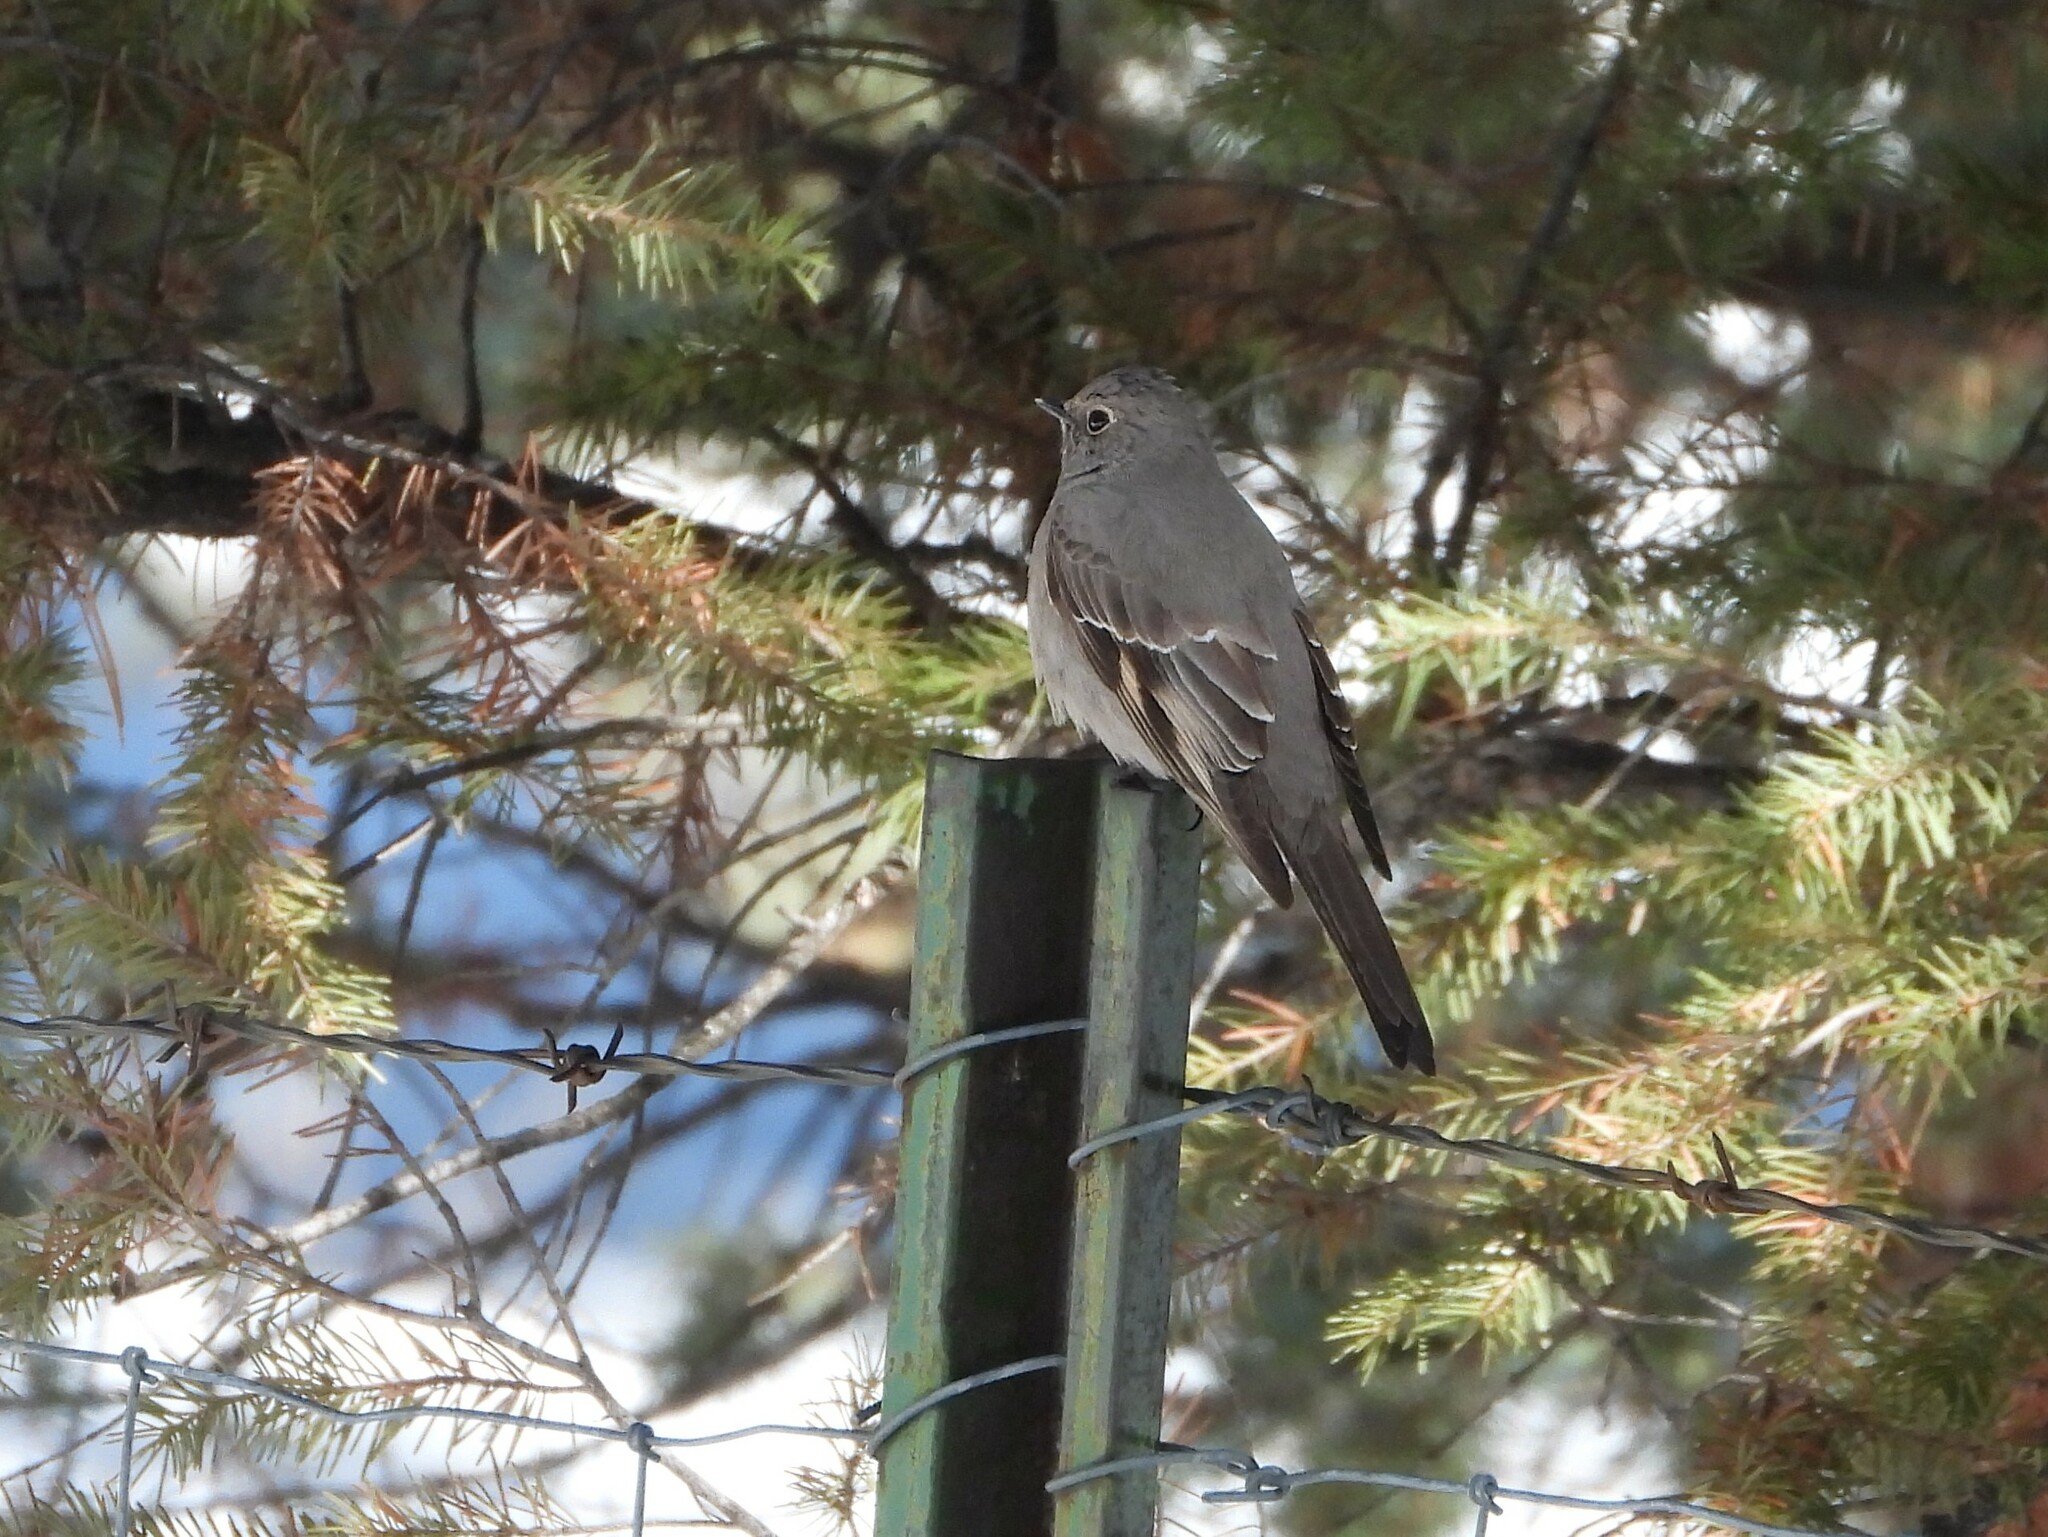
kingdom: Animalia
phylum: Chordata
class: Aves
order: Passeriformes
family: Turdidae
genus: Myadestes
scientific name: Myadestes townsendi
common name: Townsend's solitaire
